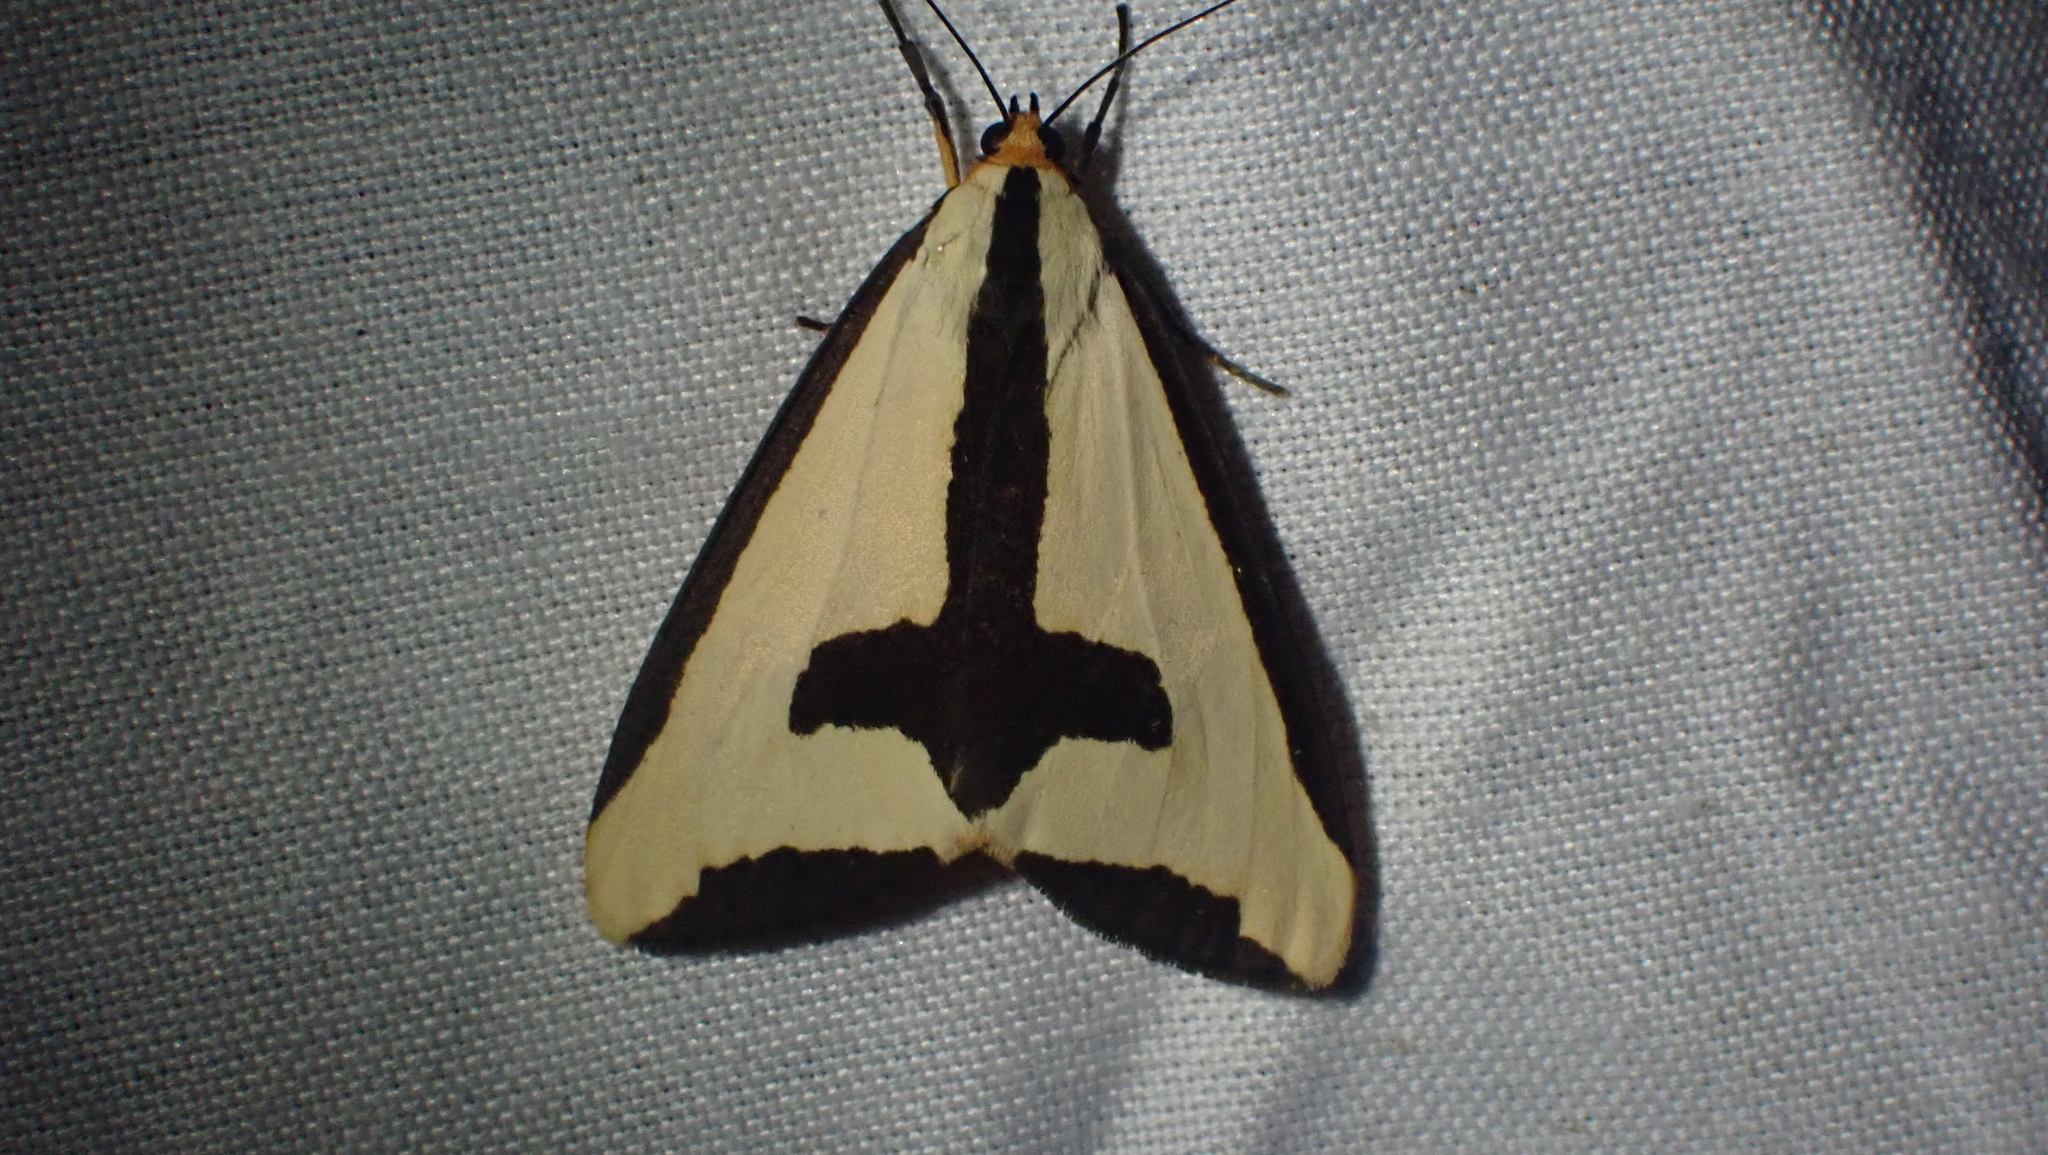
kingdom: Animalia
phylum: Arthropoda
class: Insecta
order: Lepidoptera
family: Erebidae
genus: Haploa
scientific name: Haploa clymene
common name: Clymene moth
